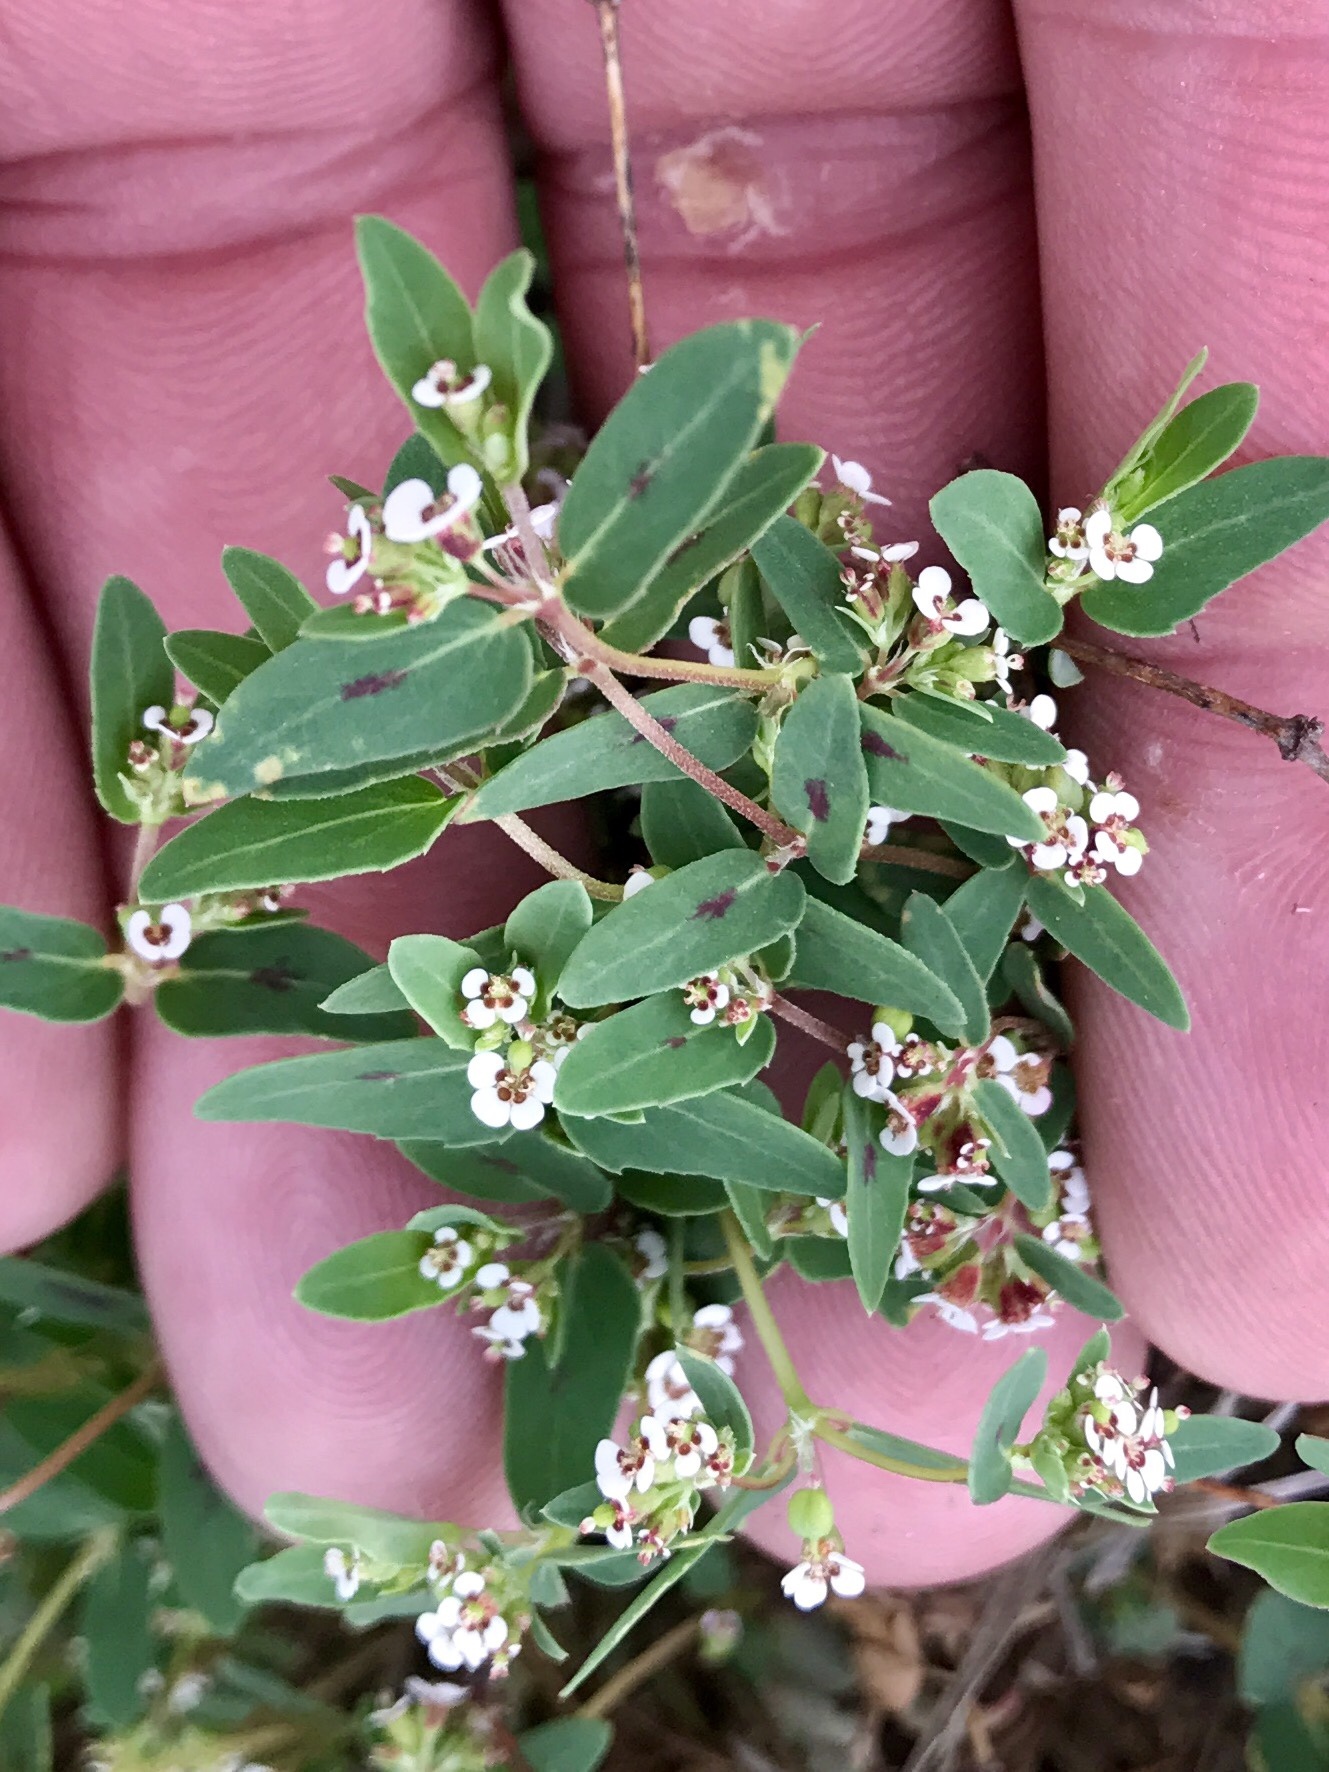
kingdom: Plantae
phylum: Tracheophyta
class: Magnoliopsida
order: Malpighiales
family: Euphorbiaceae
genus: Euphorbia
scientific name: Euphorbia capitellata
